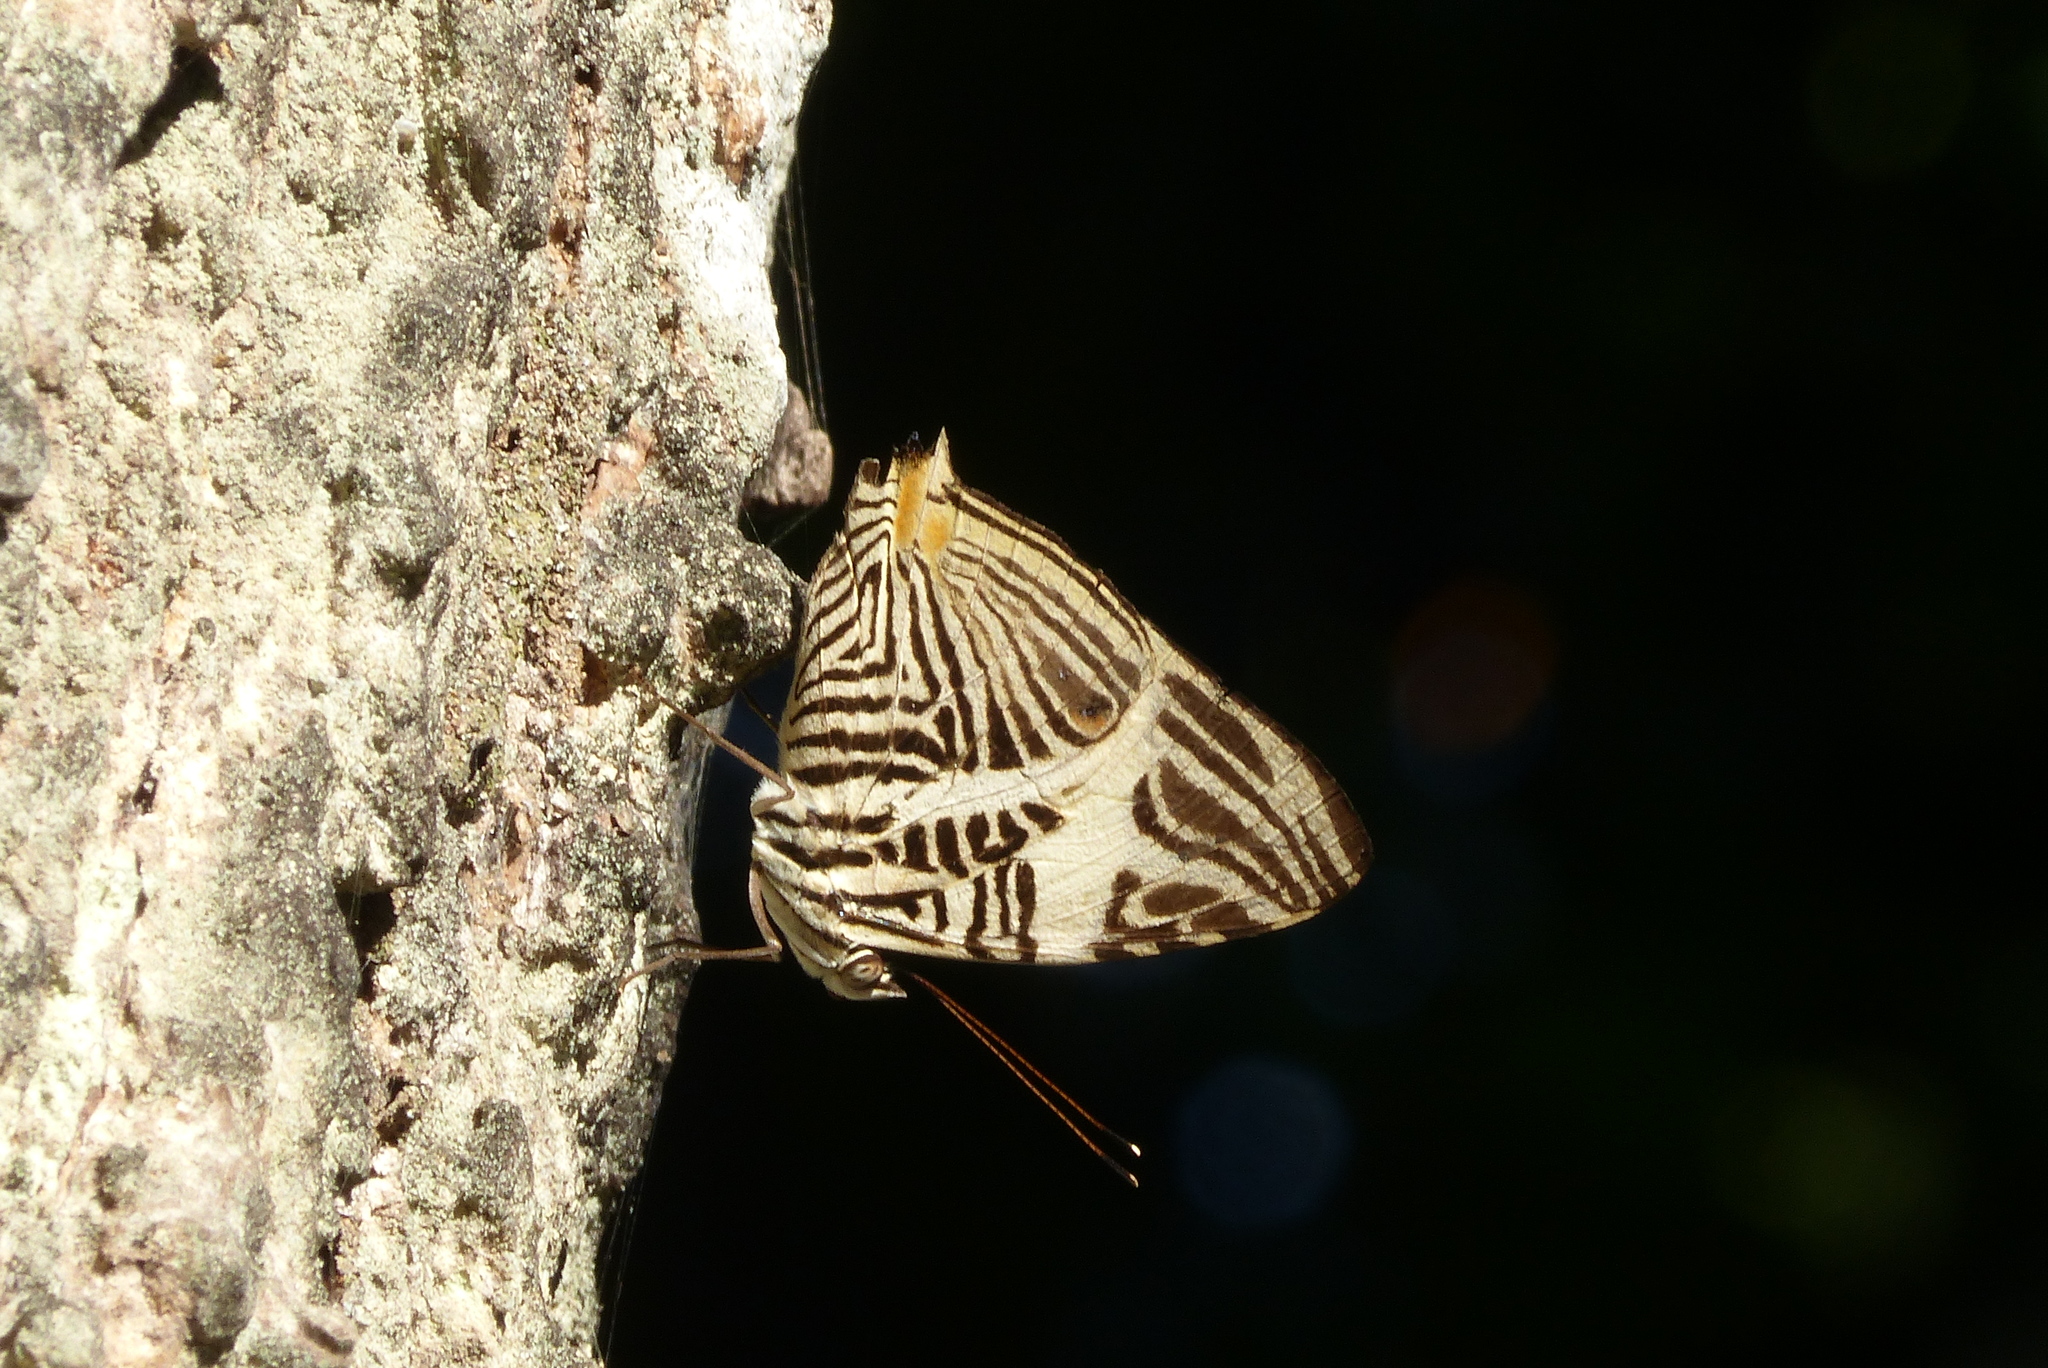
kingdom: Animalia
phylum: Arthropoda
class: Insecta
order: Lepidoptera
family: Nymphalidae
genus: Colobura
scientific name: Colobura dirce
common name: Dirce beauty
